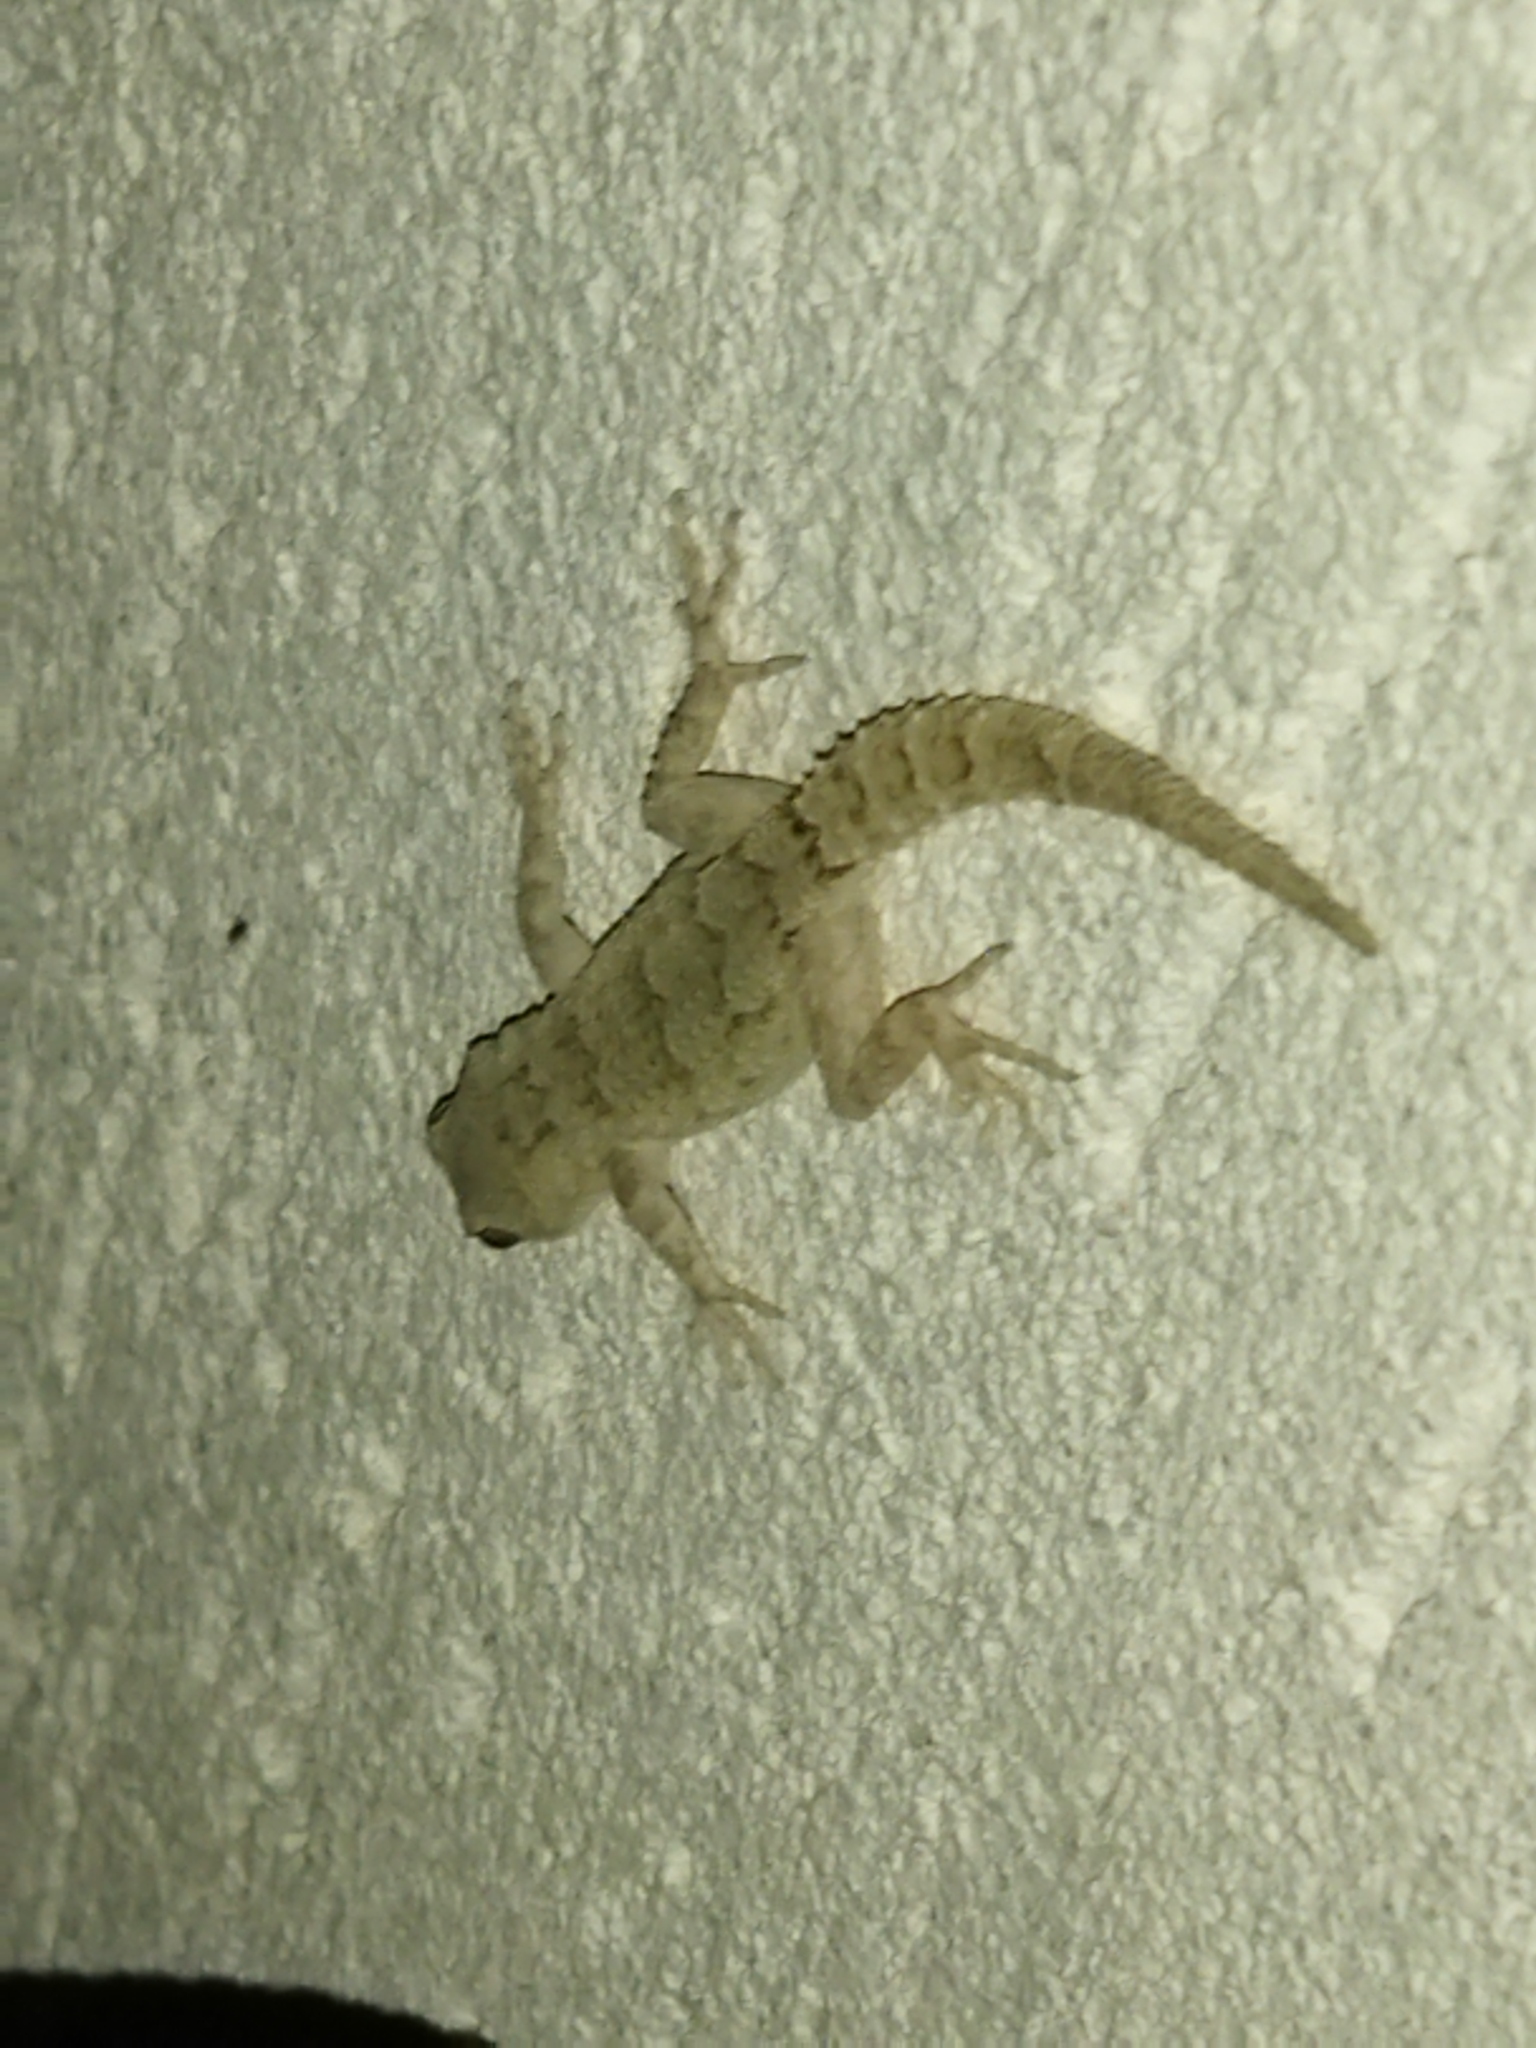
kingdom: Animalia
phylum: Chordata
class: Squamata
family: Gekkonidae
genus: Mediodactylus
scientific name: Mediodactylus kotschyi
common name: Kotschy's gecko
